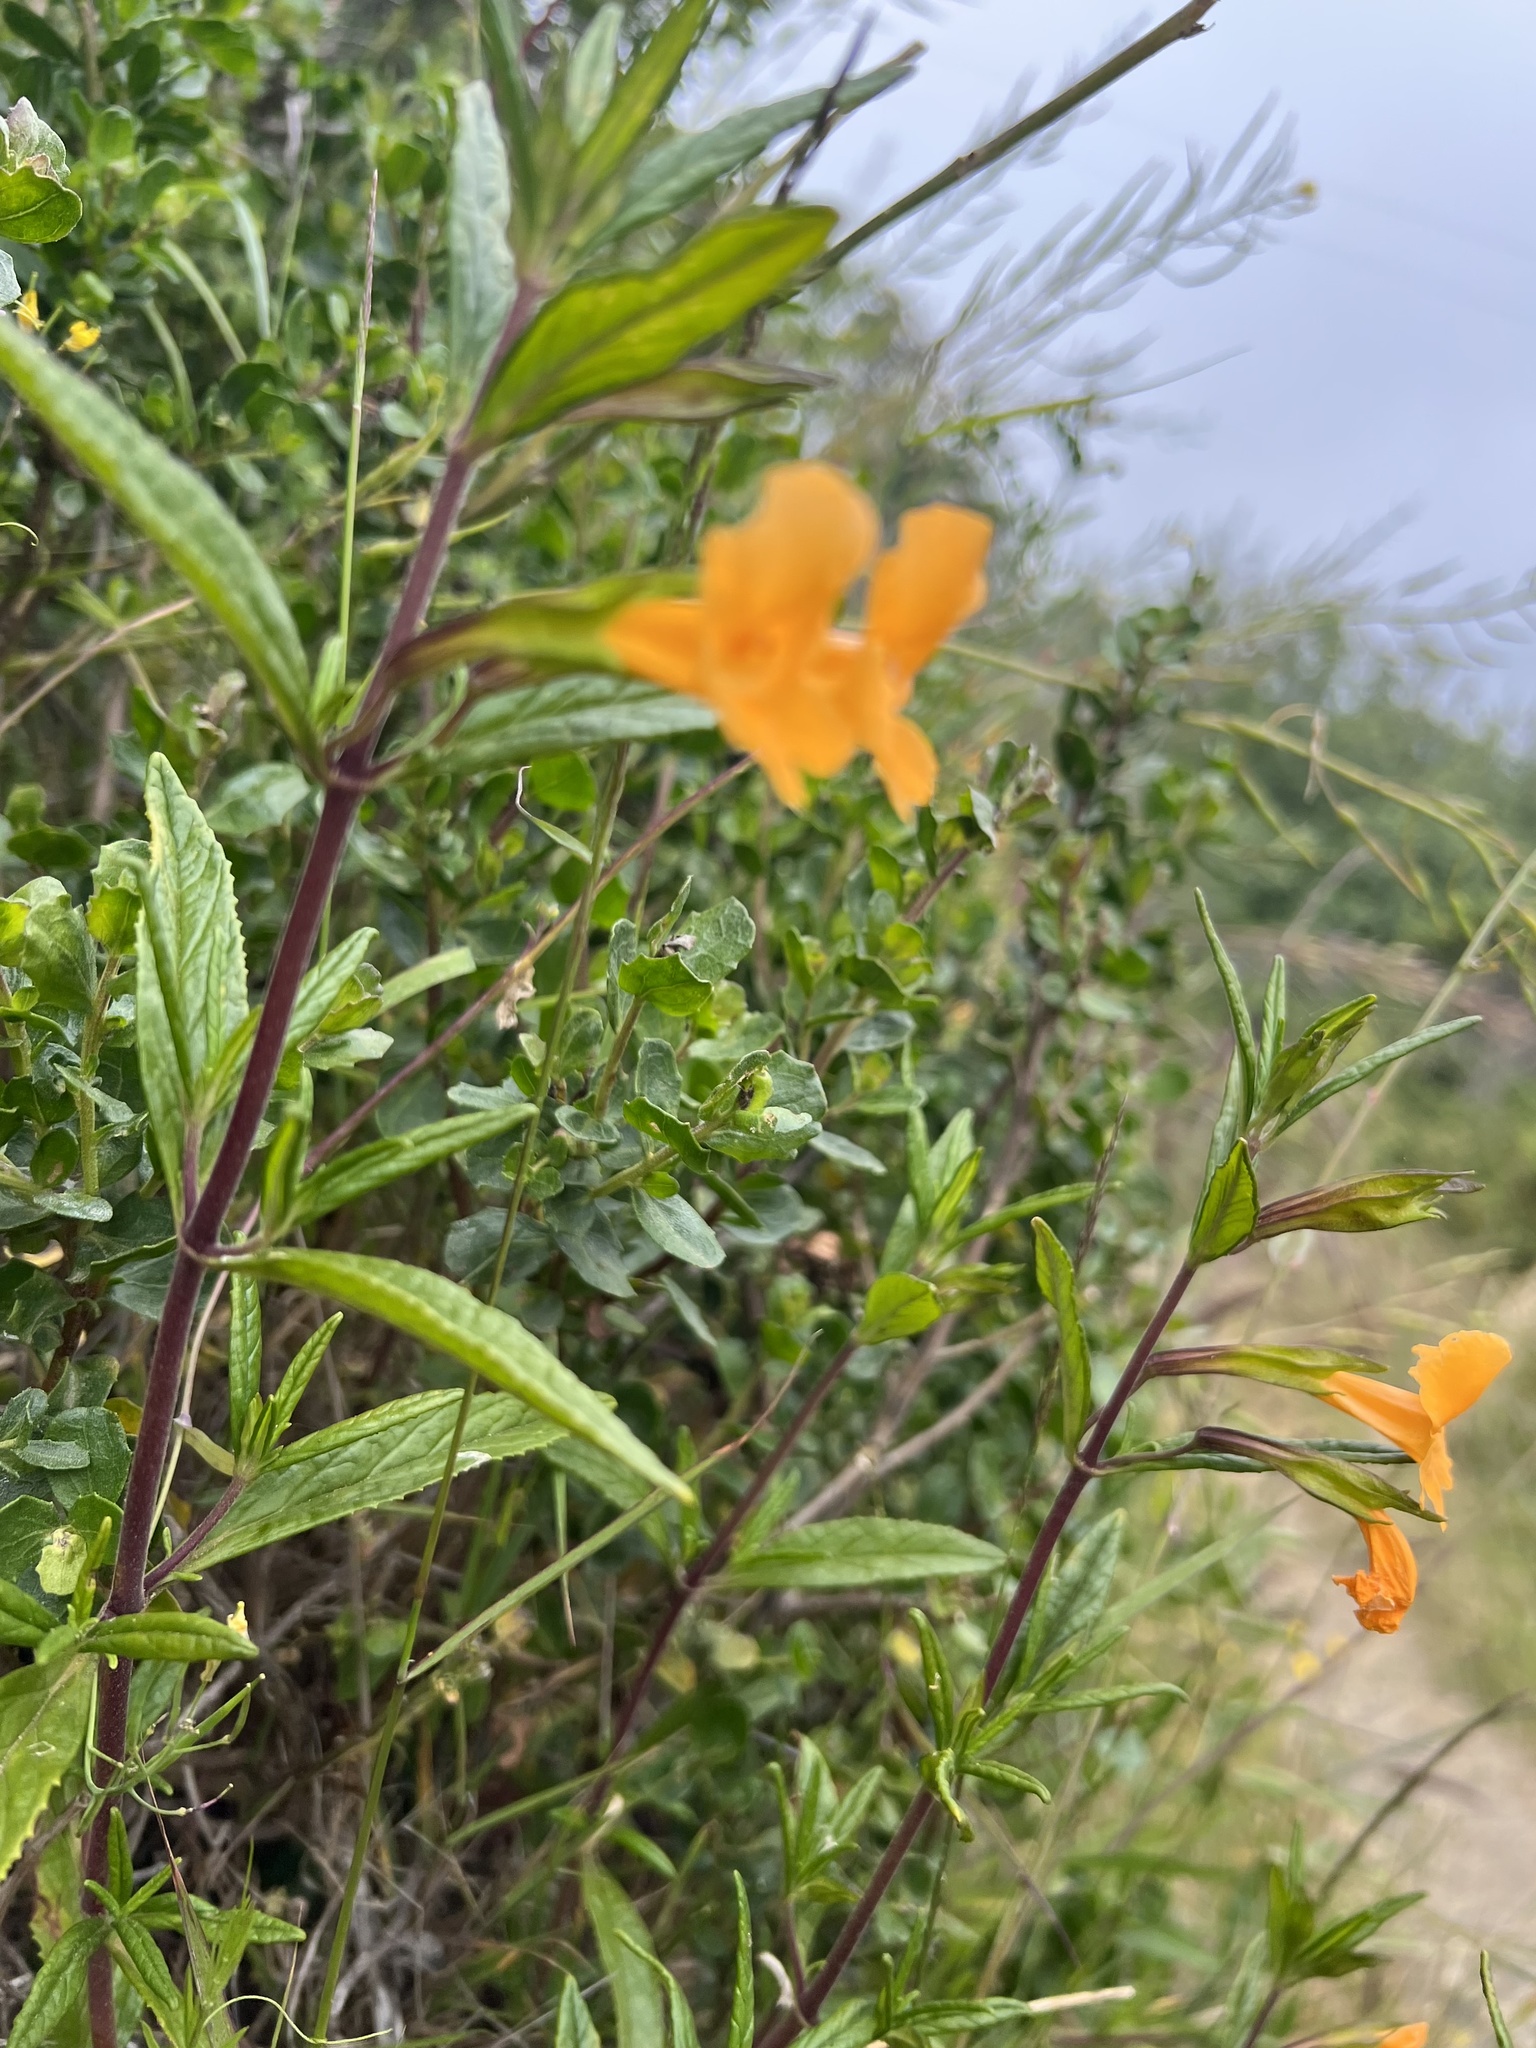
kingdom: Plantae
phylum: Tracheophyta
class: Magnoliopsida
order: Lamiales
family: Phrymaceae
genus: Diplacus
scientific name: Diplacus aurantiacus
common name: Bush monkey-flower
